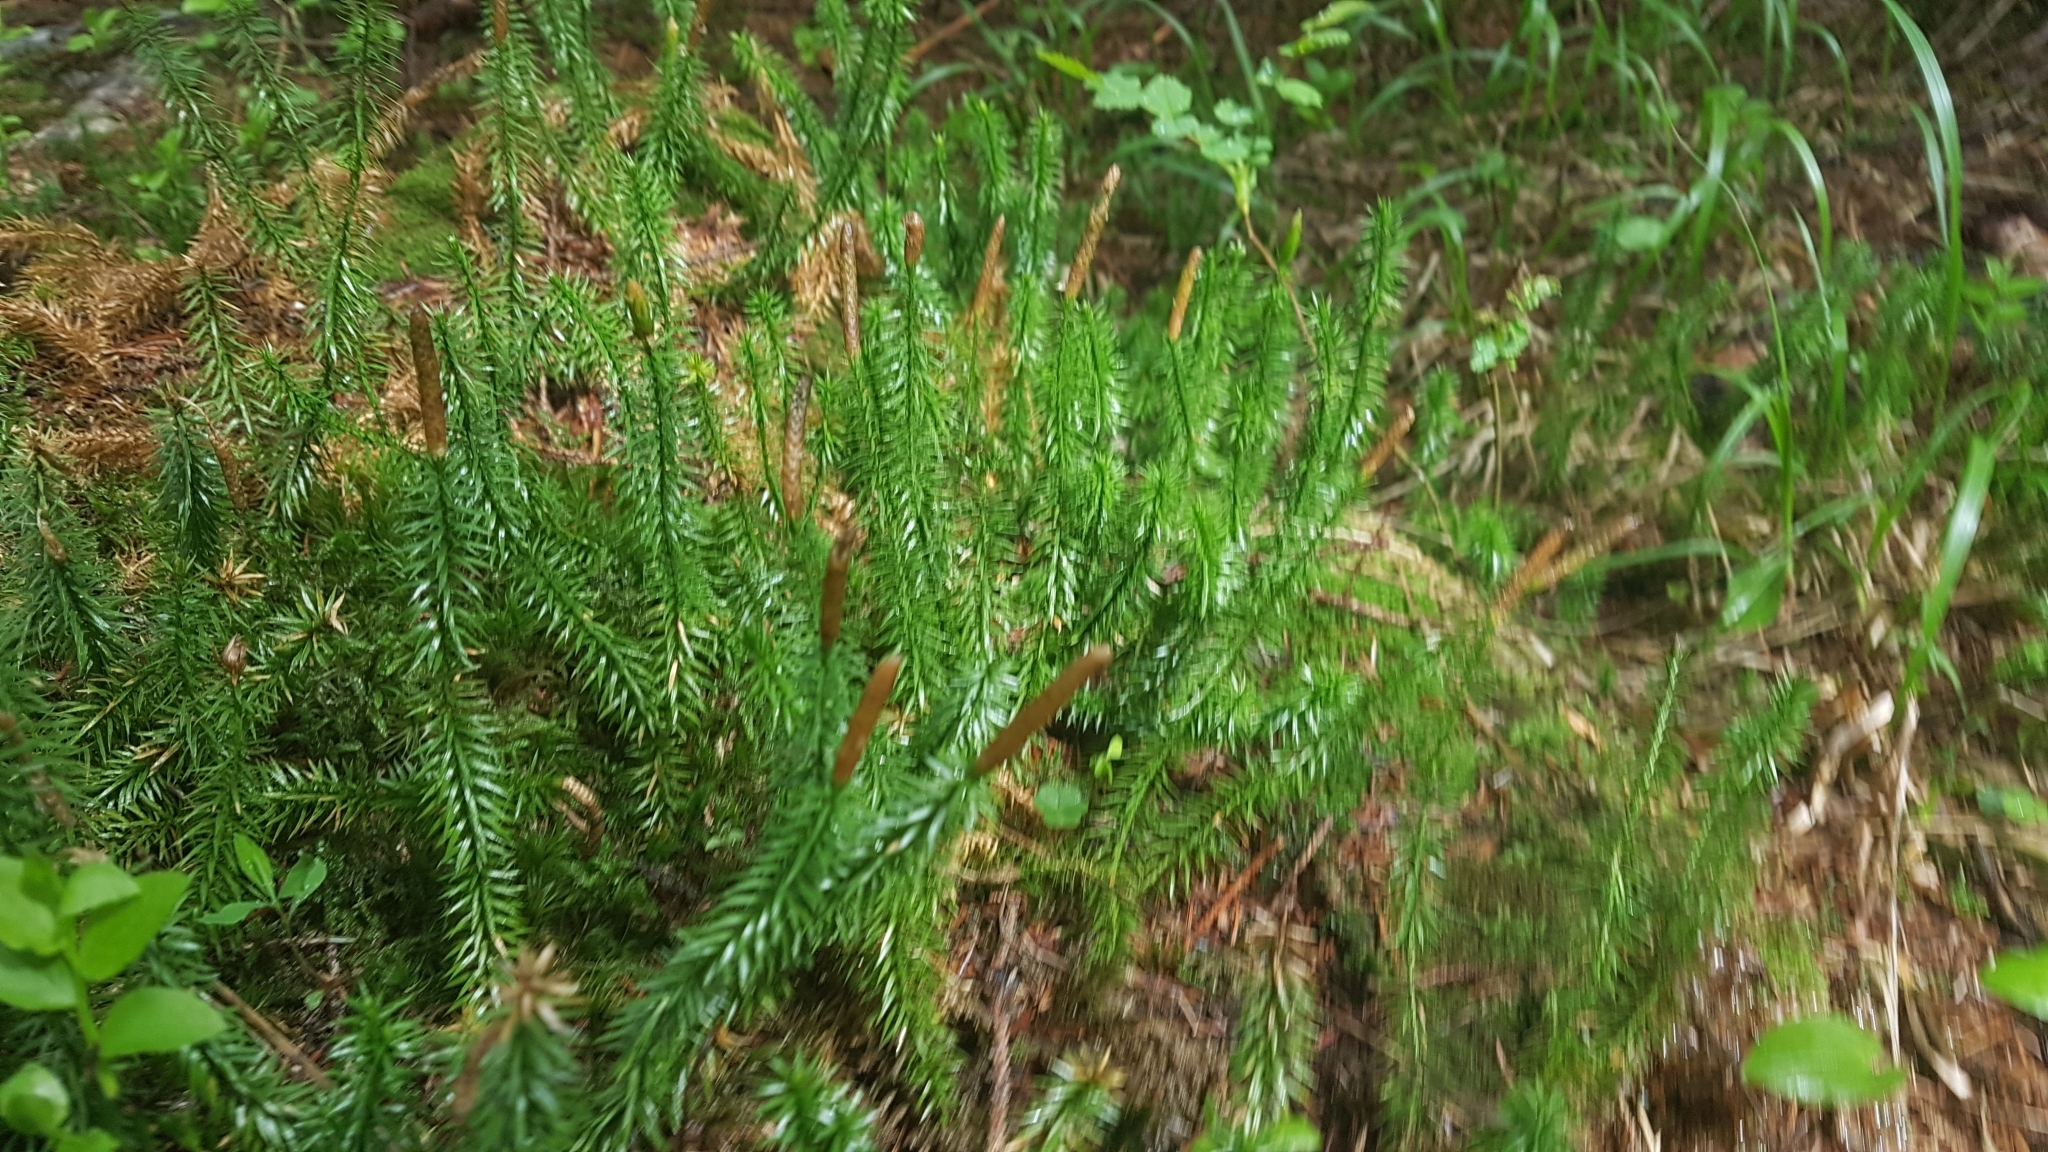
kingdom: Plantae
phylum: Tracheophyta
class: Lycopodiopsida
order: Lycopodiales
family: Lycopodiaceae
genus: Spinulum
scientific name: Spinulum annotinum
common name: Interrupted club-moss
